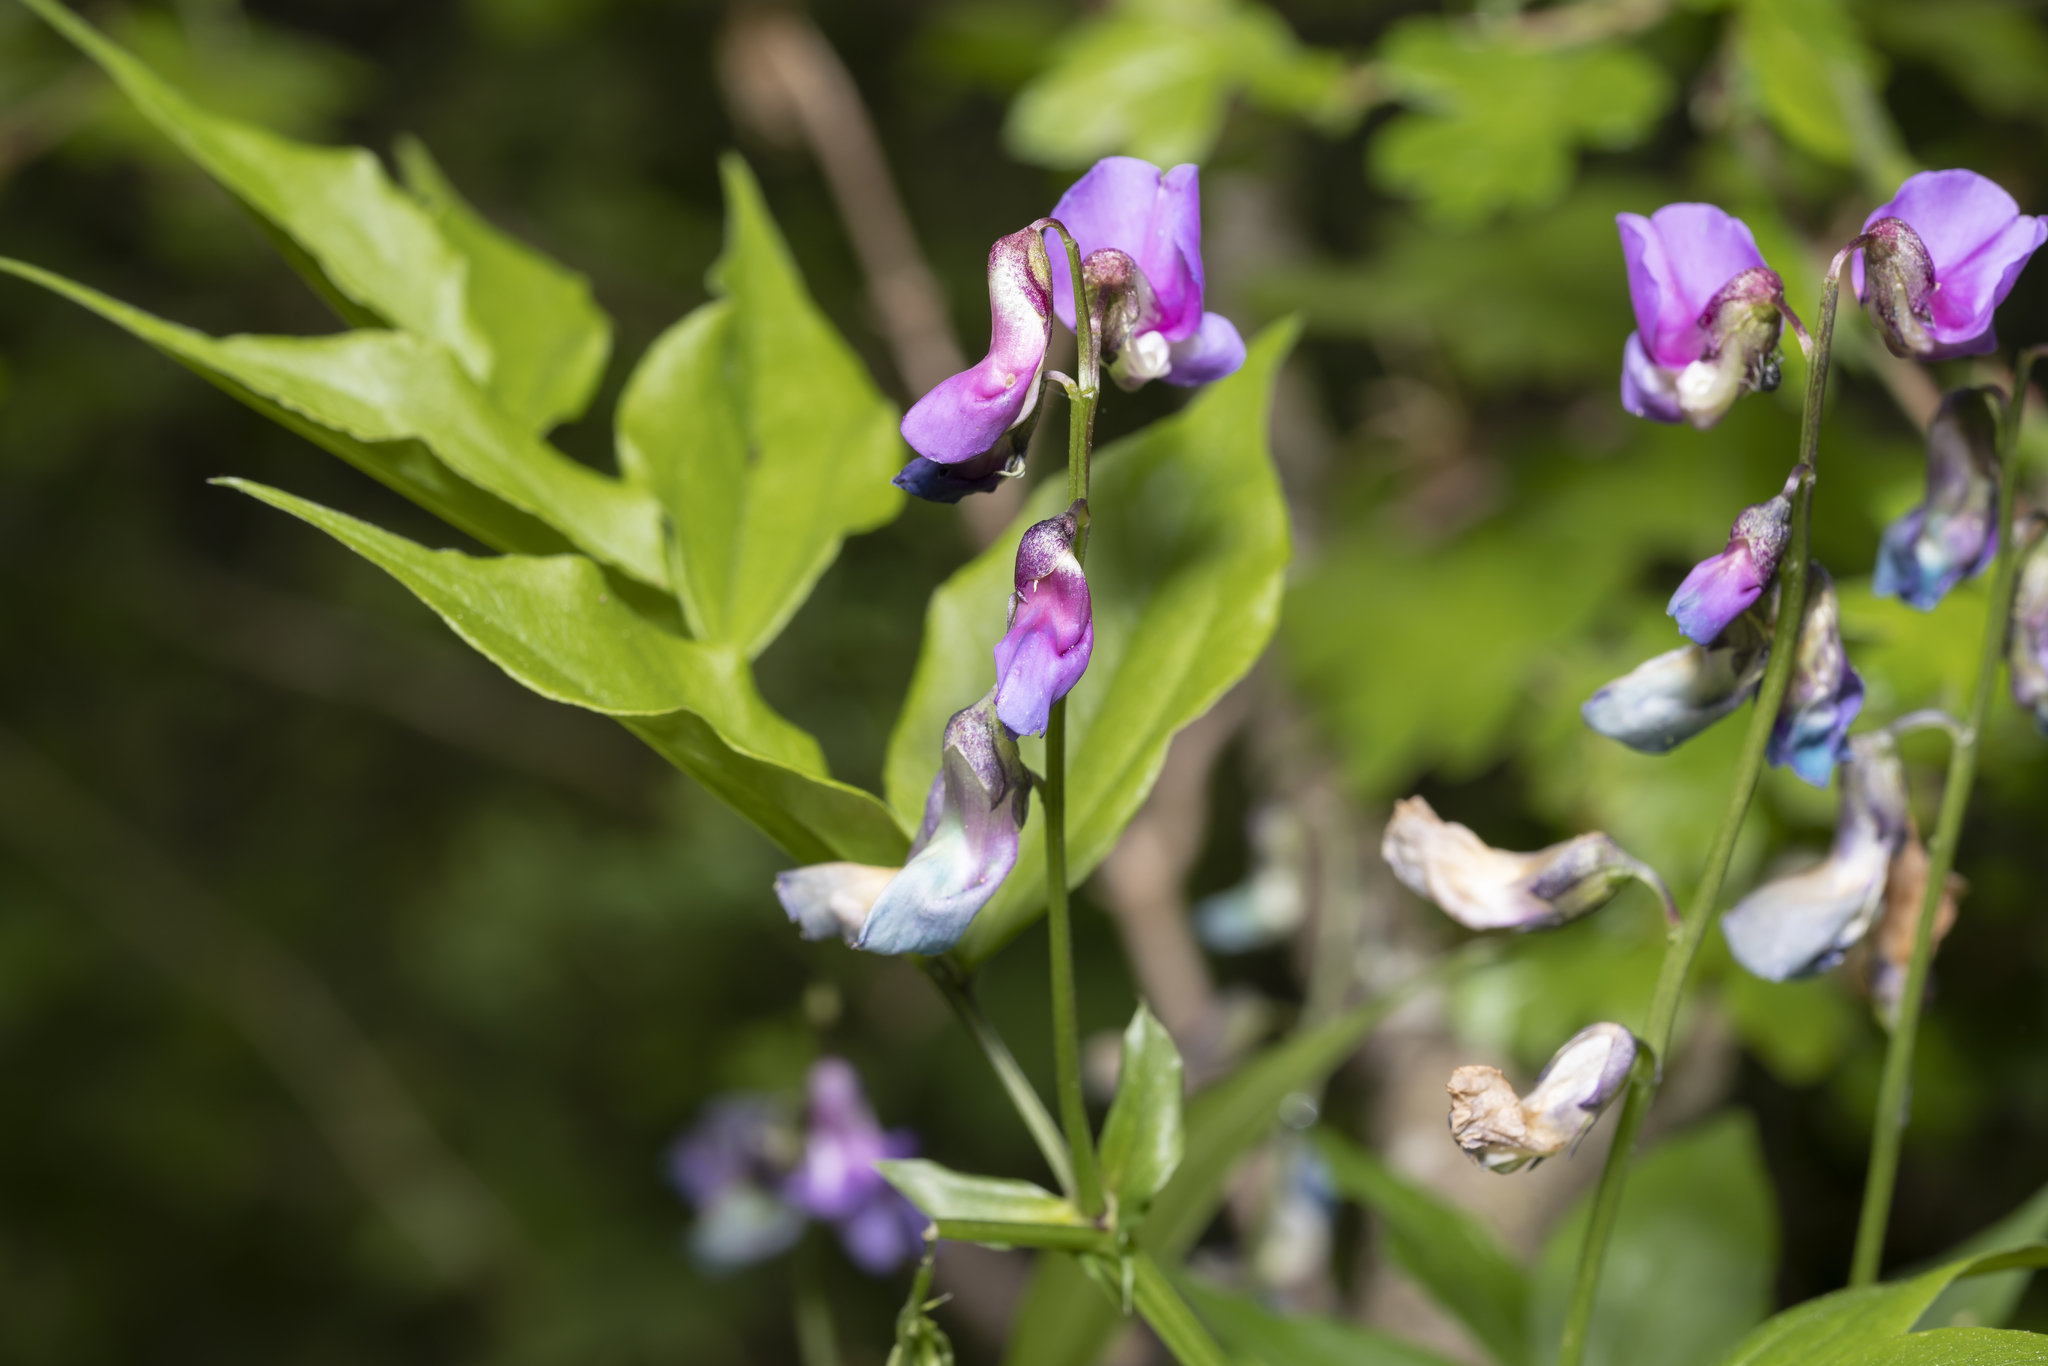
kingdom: Plantae
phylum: Tracheophyta
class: Magnoliopsida
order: Fabales
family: Fabaceae
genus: Lathyrus
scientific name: Lathyrus vernus
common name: Spring pea
